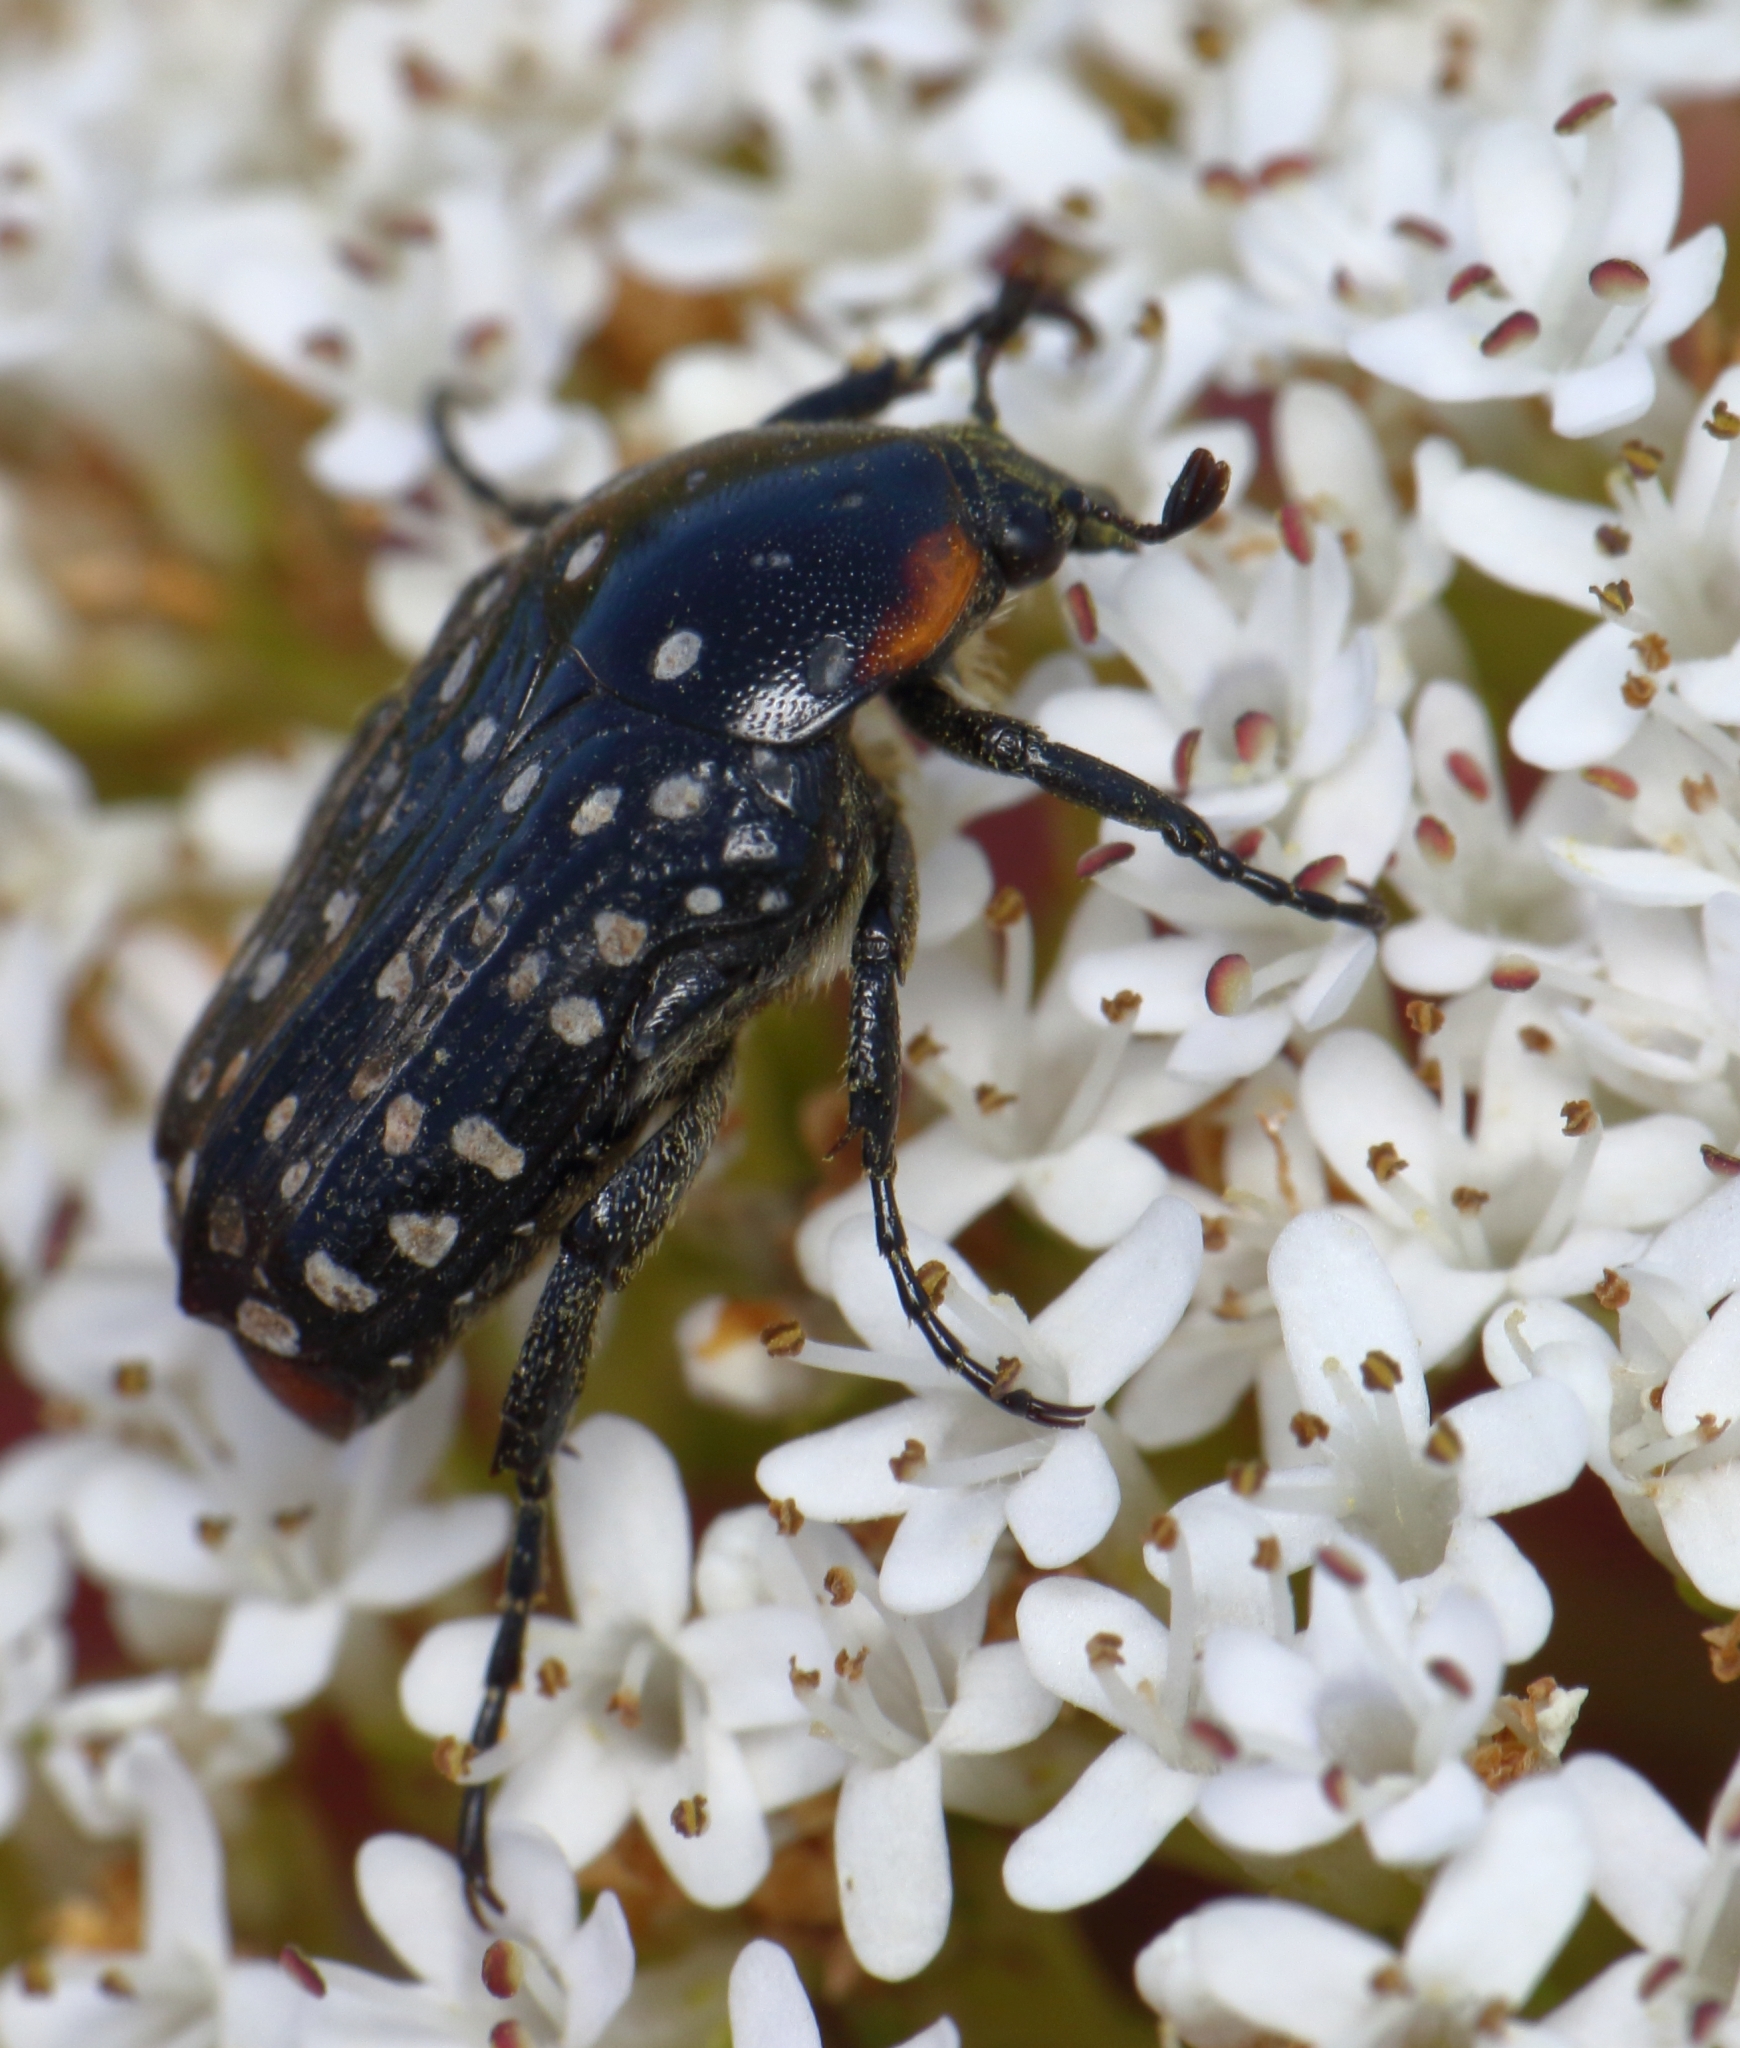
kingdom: Animalia
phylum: Arthropoda
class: Insecta
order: Coleoptera
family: Scarabaeidae
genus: Oxythyrea
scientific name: Oxythyrea
